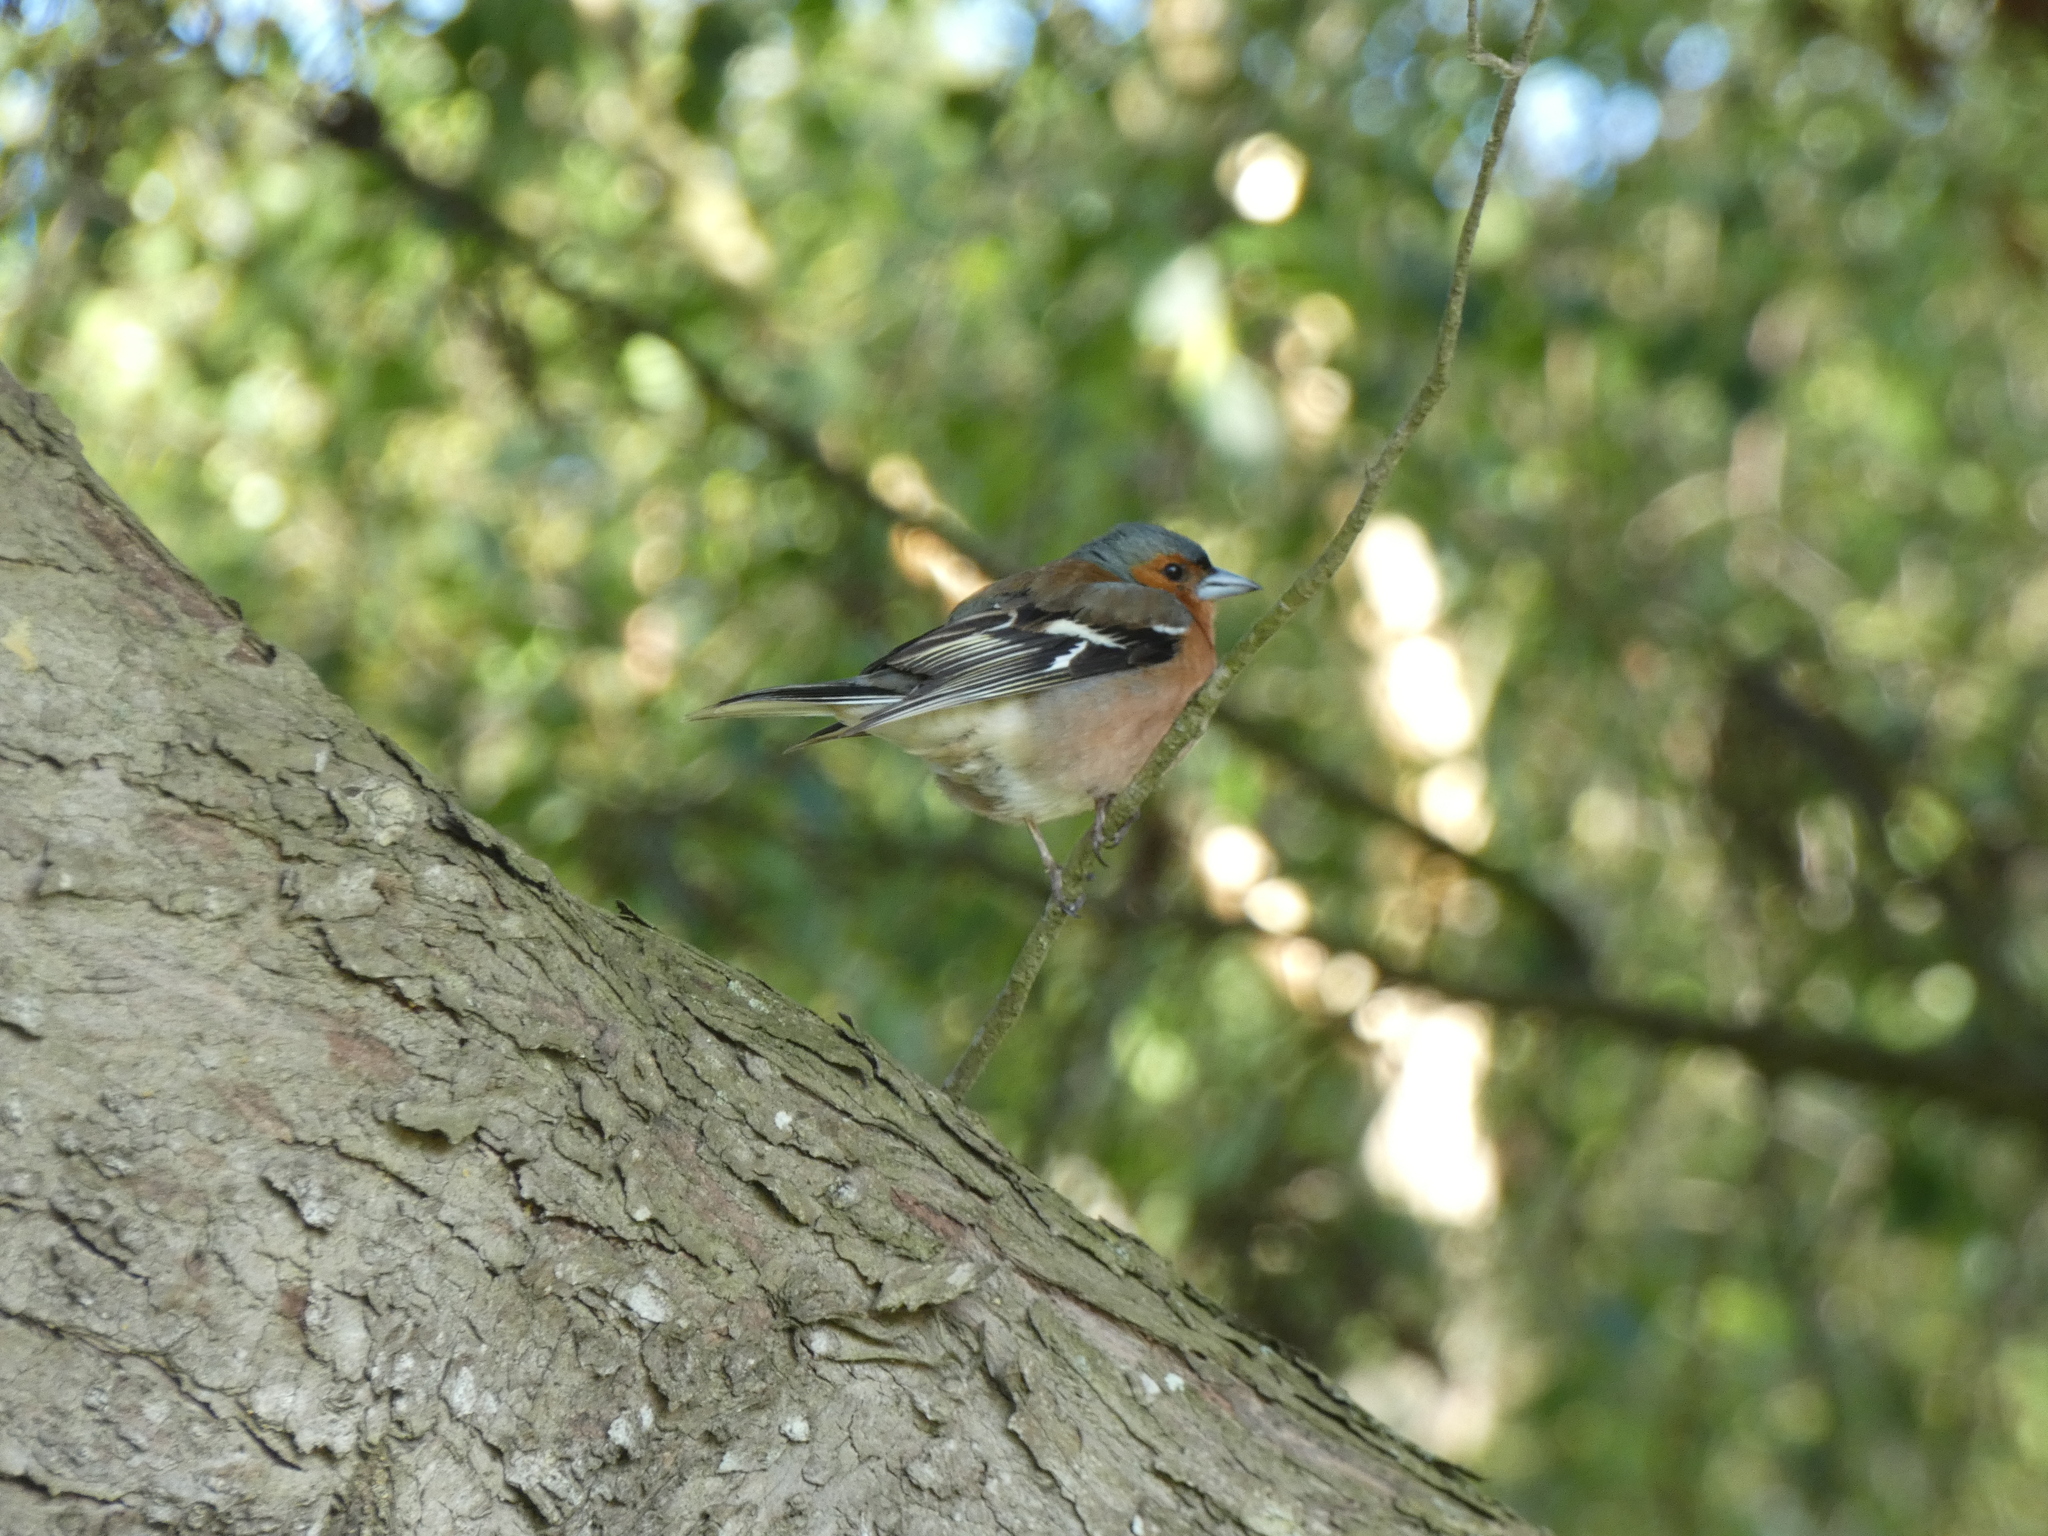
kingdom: Animalia
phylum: Chordata
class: Aves
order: Passeriformes
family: Fringillidae
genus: Fringilla
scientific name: Fringilla coelebs
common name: Common chaffinch
